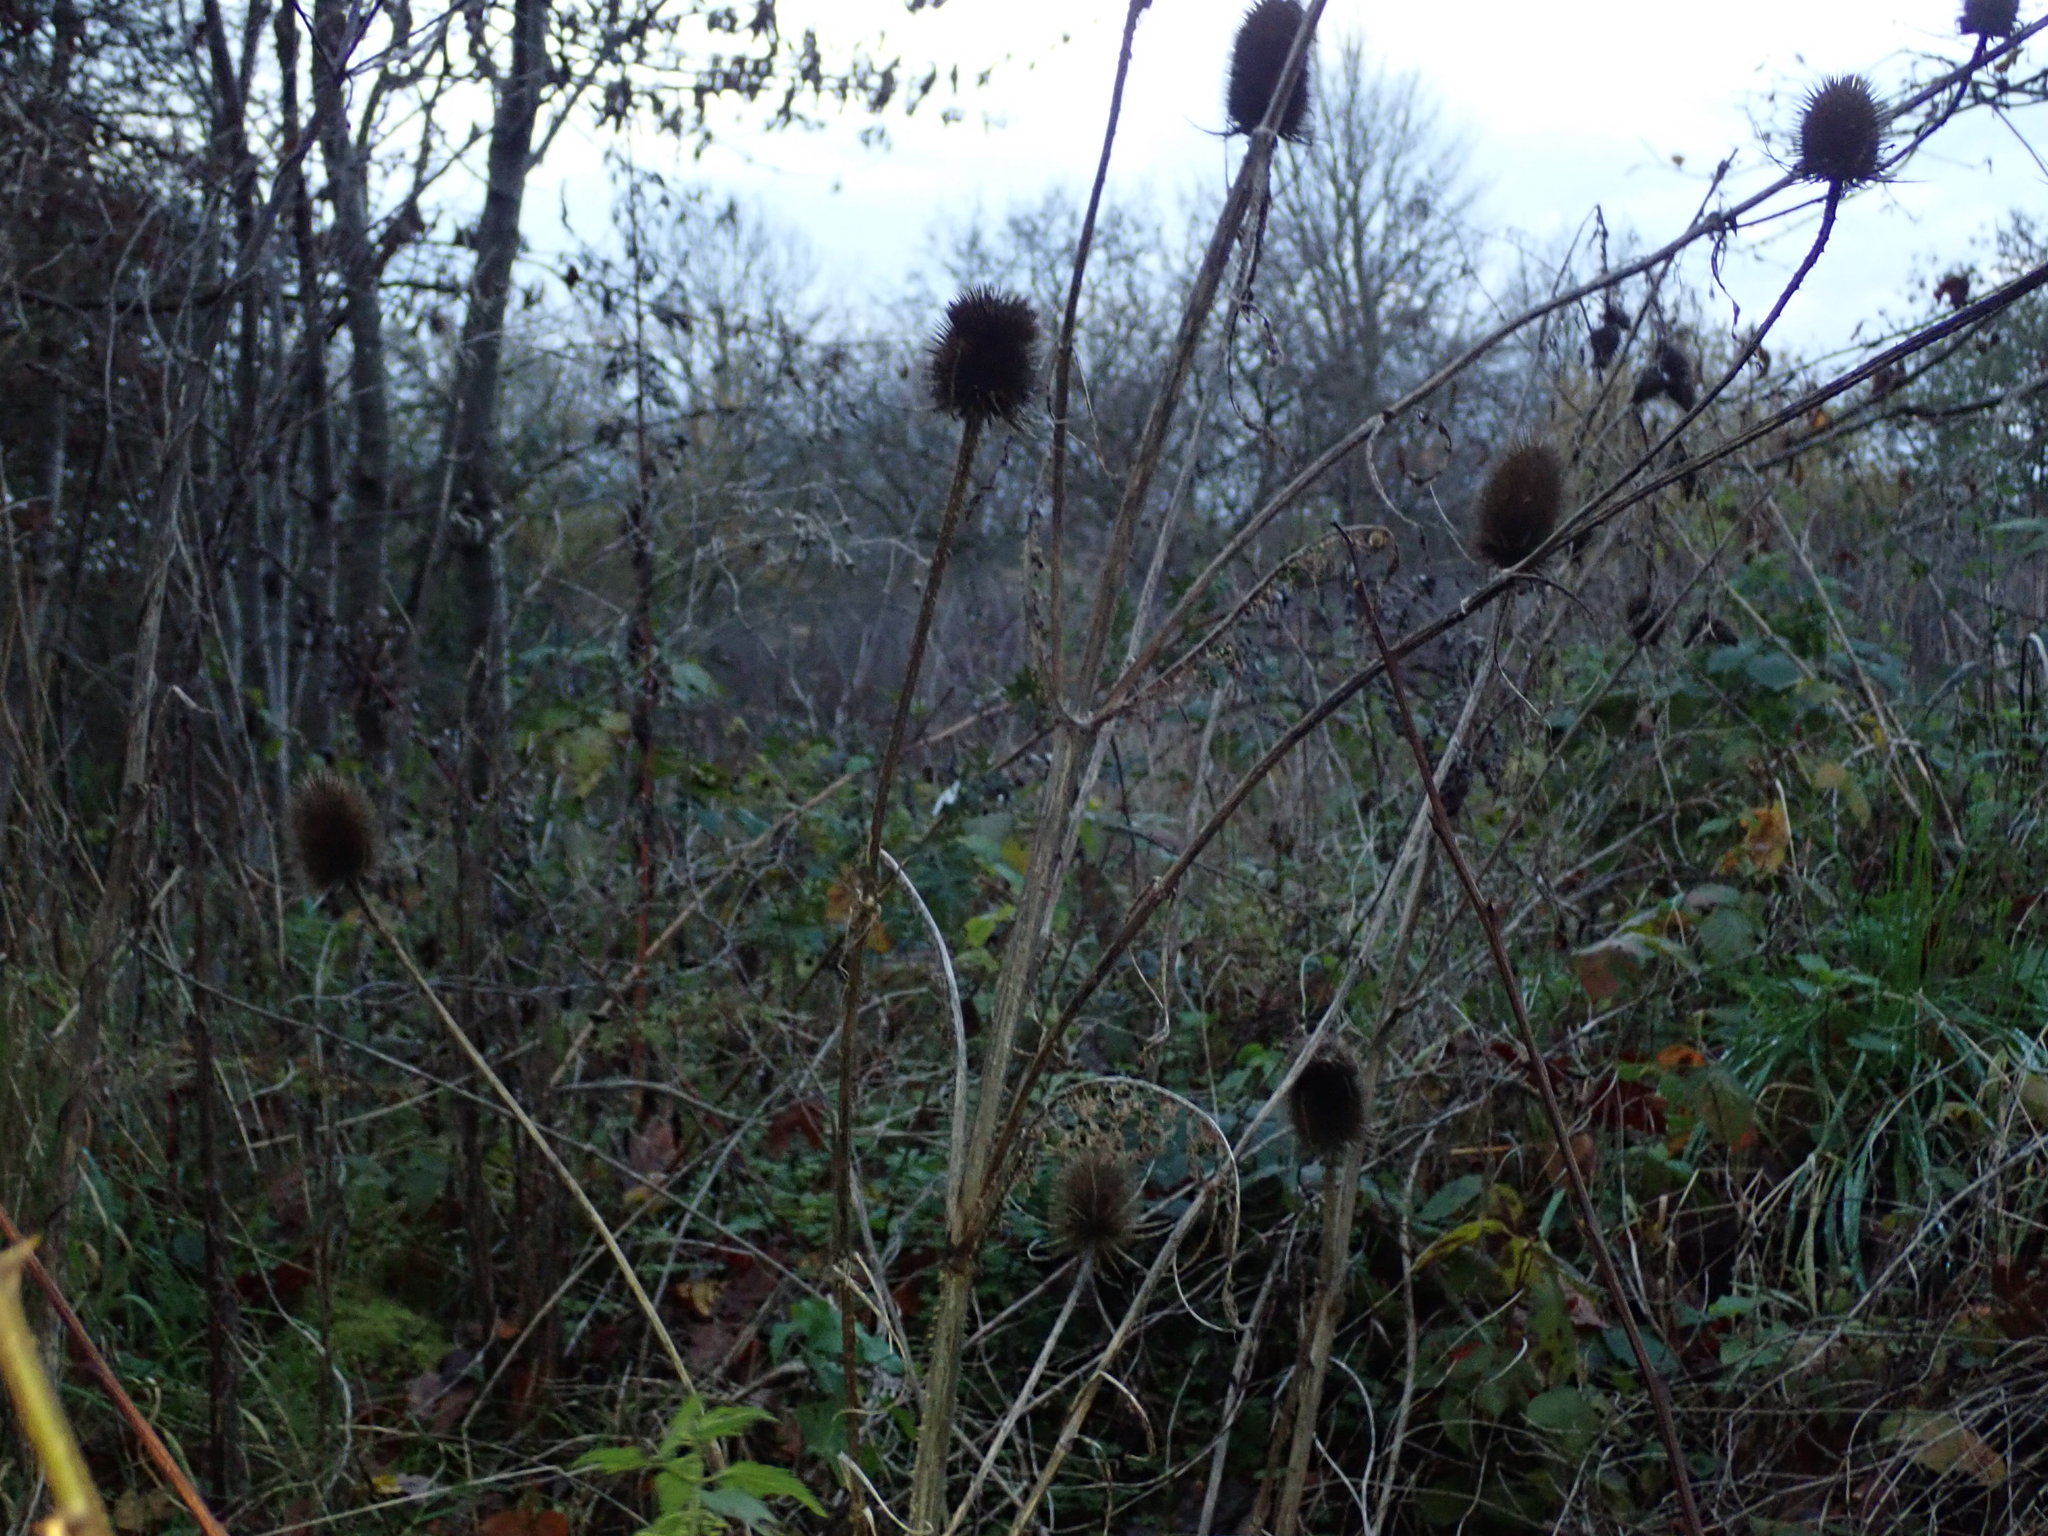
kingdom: Plantae
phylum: Tracheophyta
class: Magnoliopsida
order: Dipsacales
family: Caprifoliaceae
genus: Dipsacus
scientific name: Dipsacus fullonum
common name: Teasel
